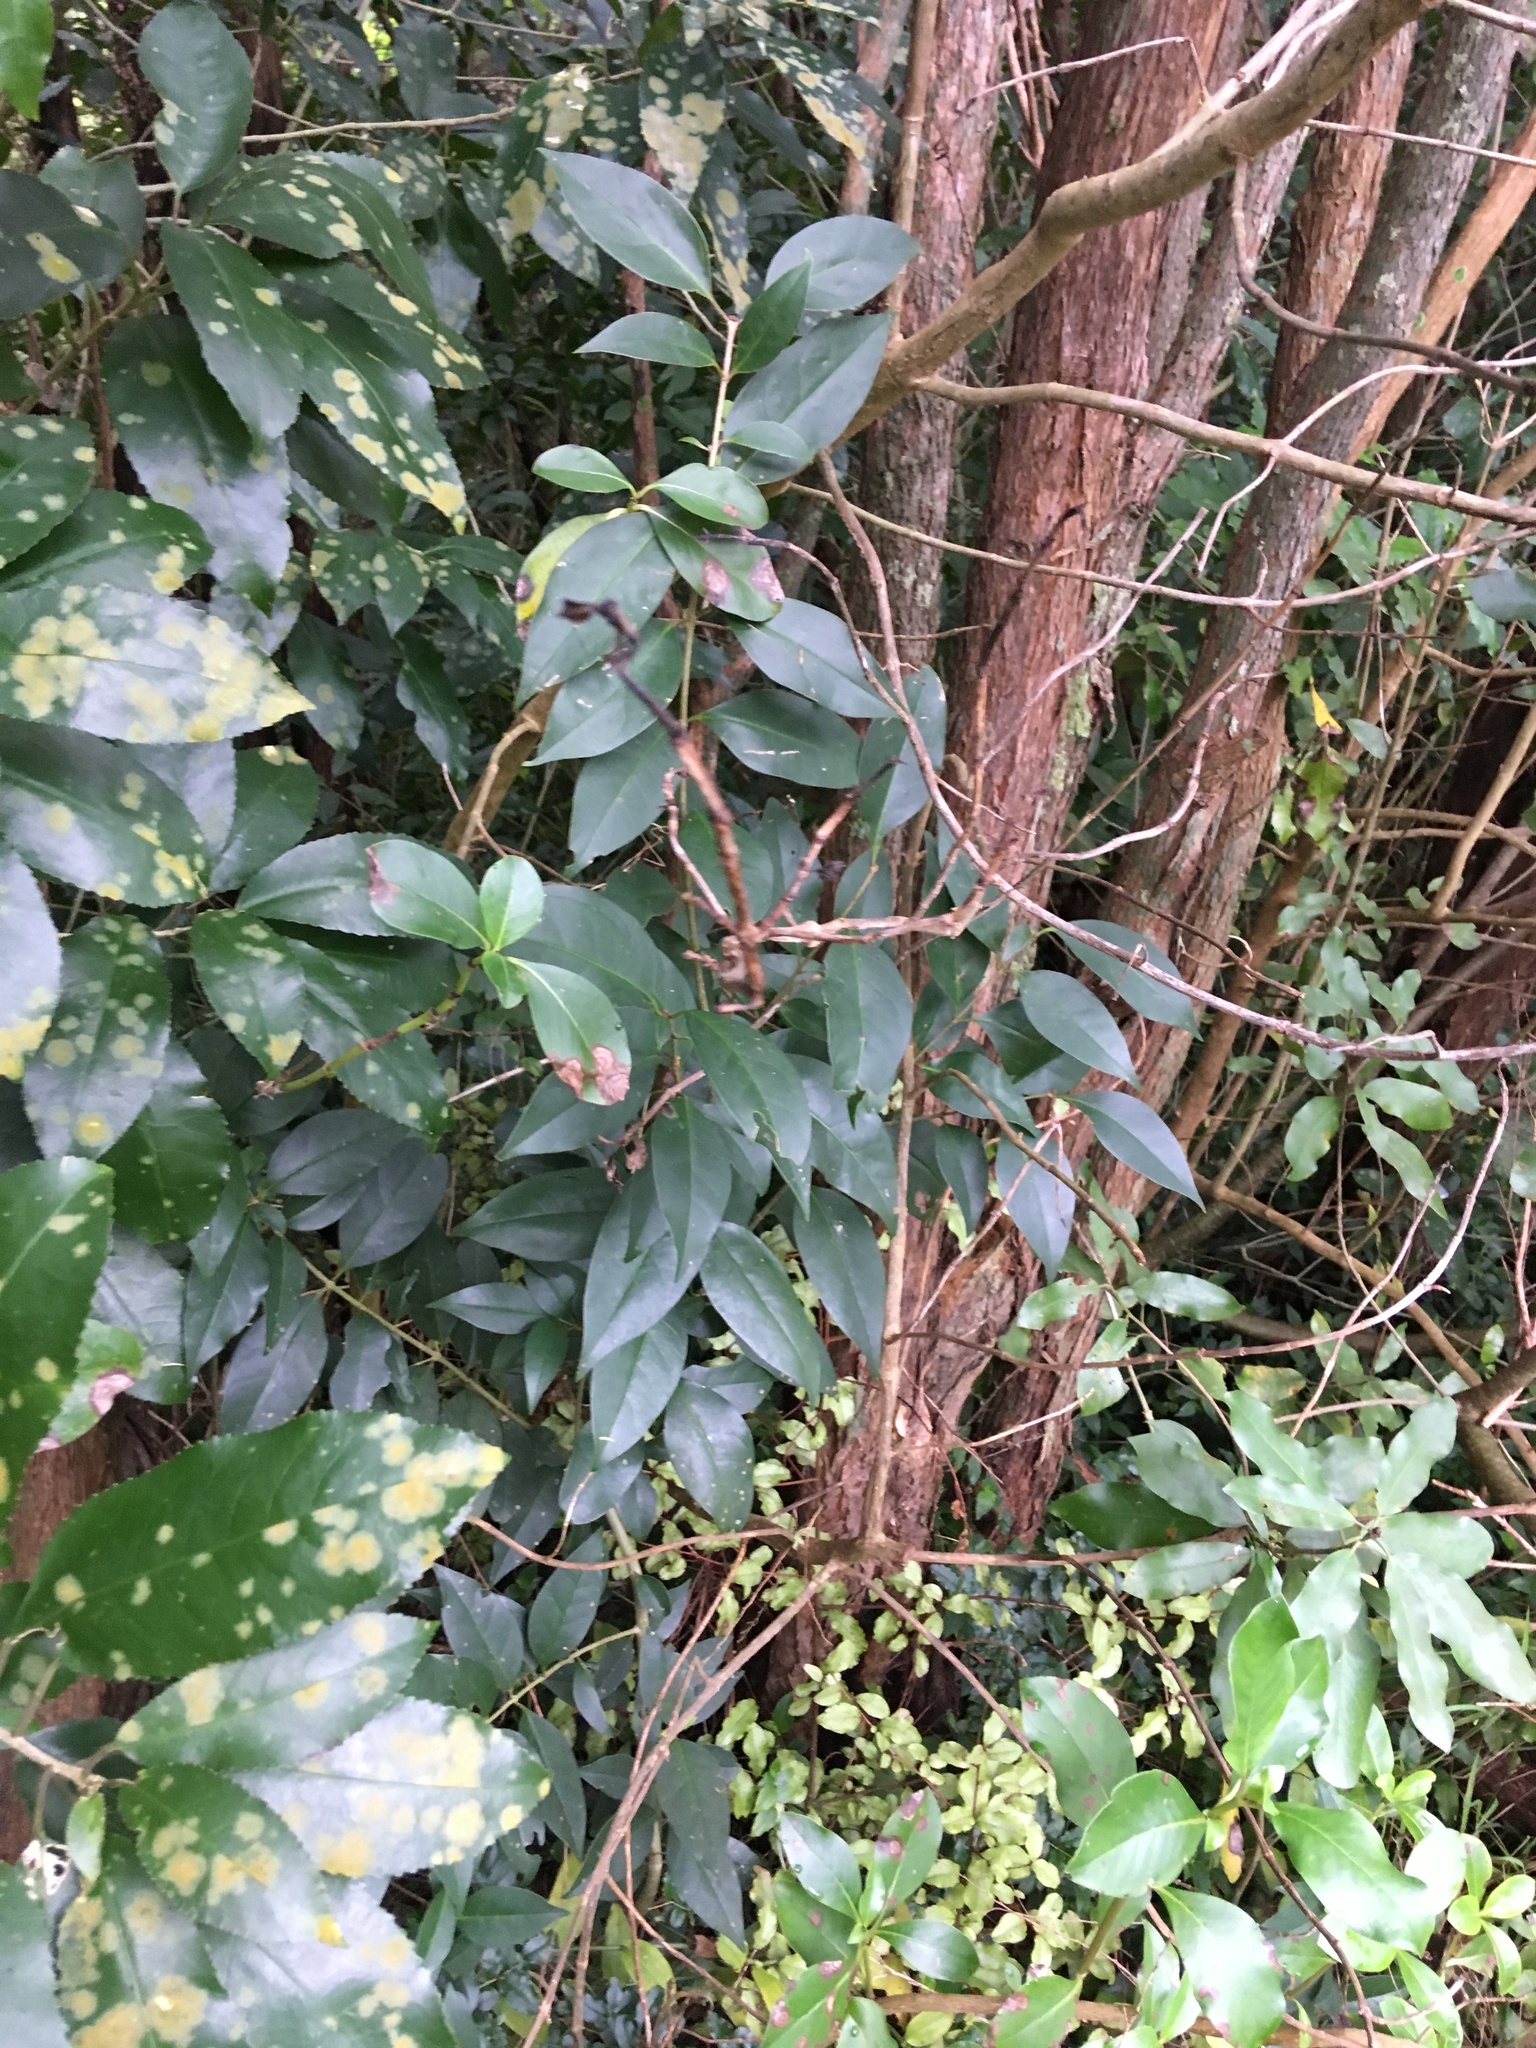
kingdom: Plantae
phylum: Tracheophyta
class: Magnoliopsida
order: Lamiales
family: Oleaceae
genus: Ligustrum
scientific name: Ligustrum lucidum
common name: Glossy privet
